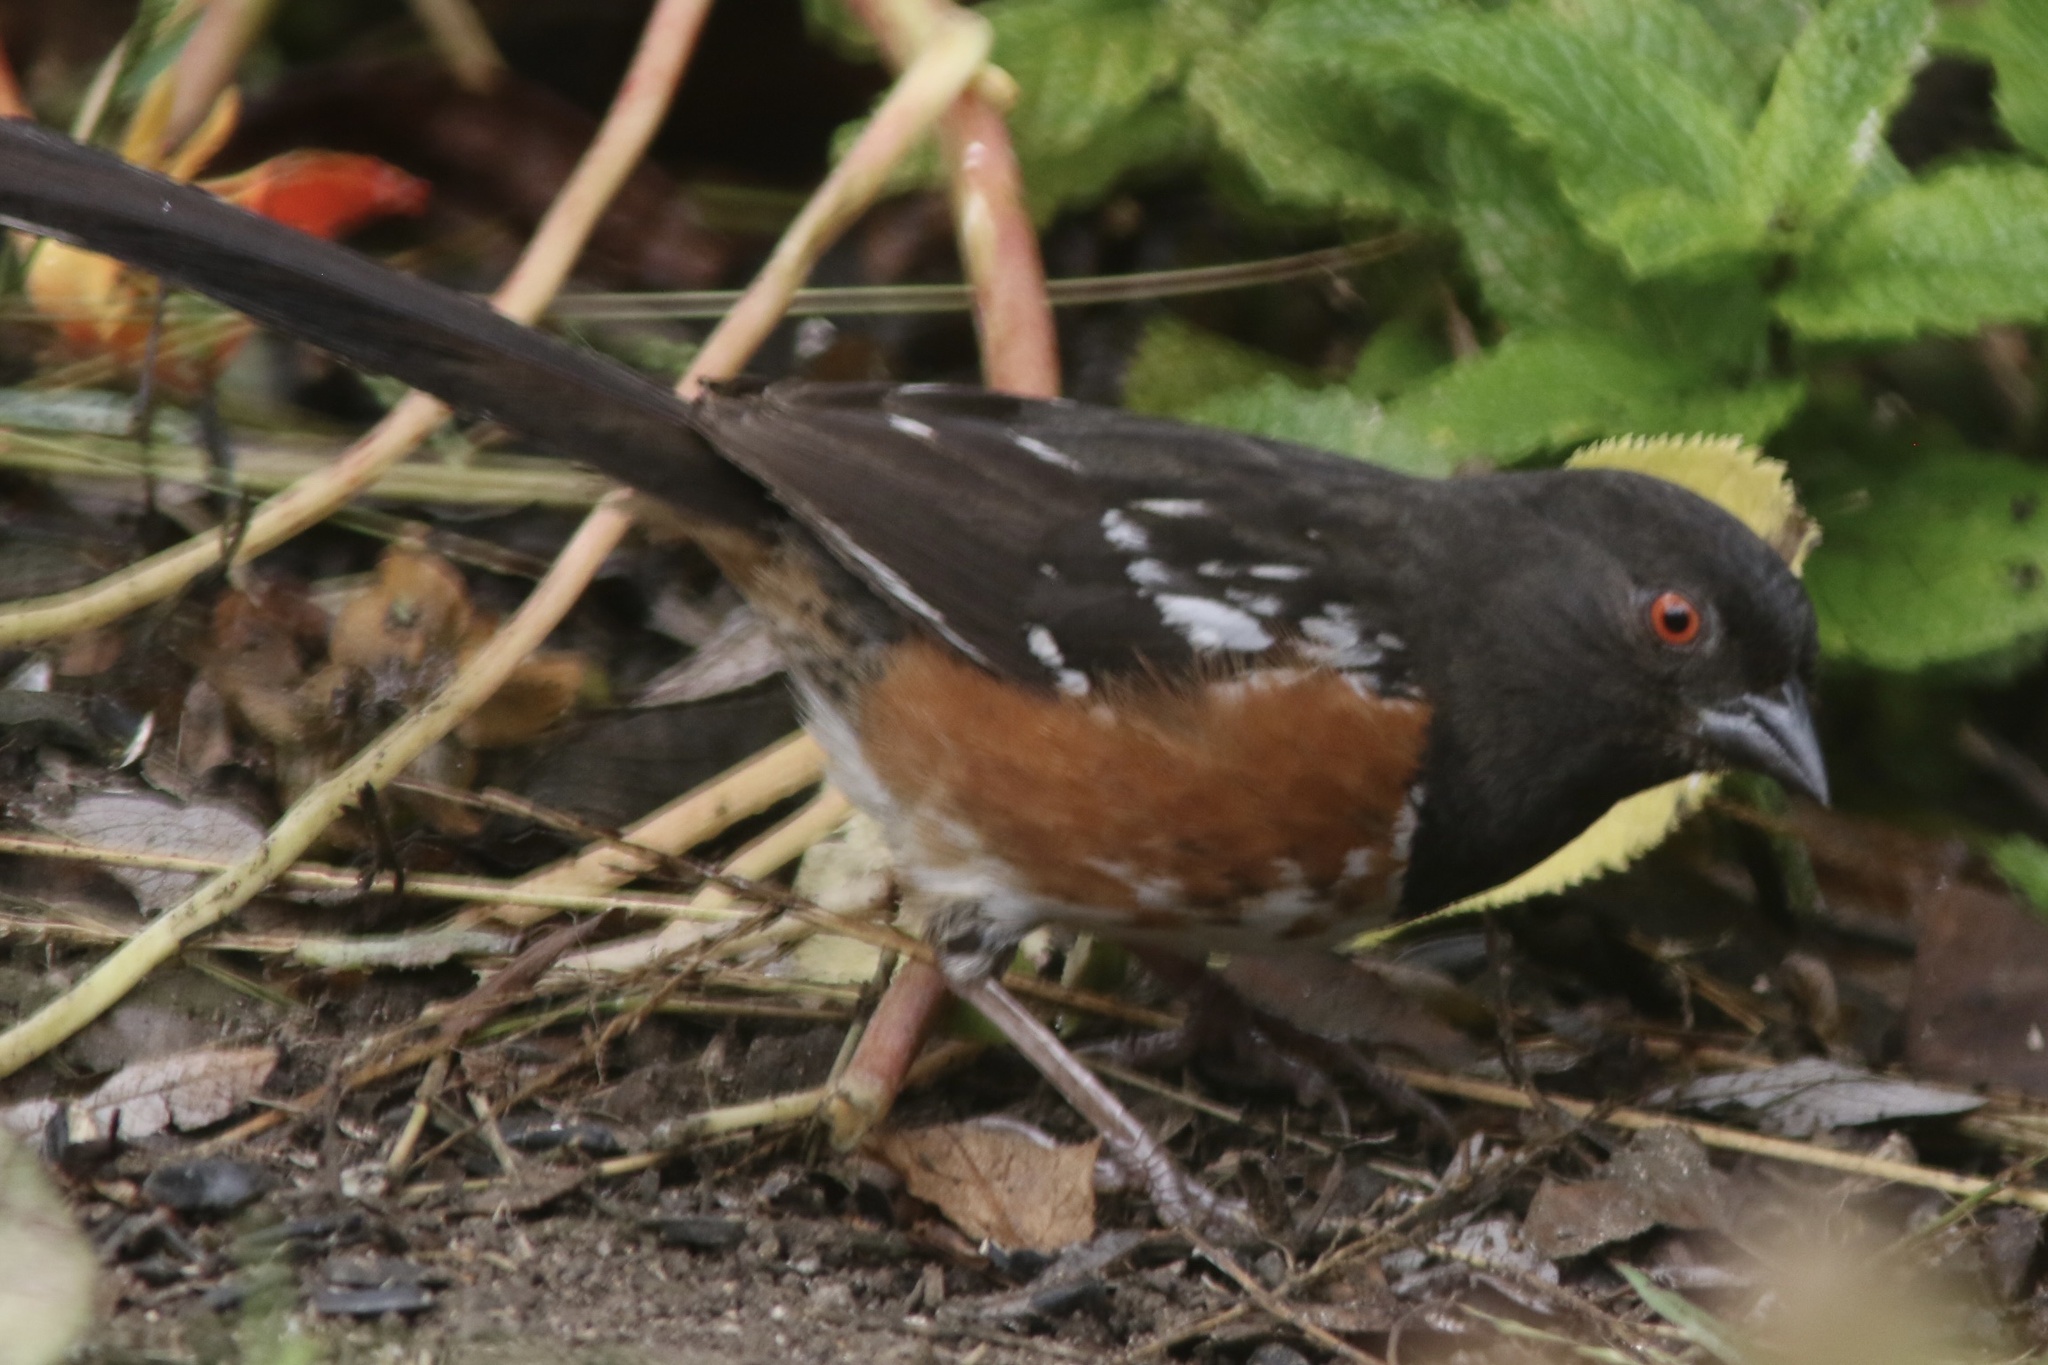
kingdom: Animalia
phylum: Chordata
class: Aves
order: Passeriformes
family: Passerellidae
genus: Pipilo
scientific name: Pipilo maculatus
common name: Spotted towhee
